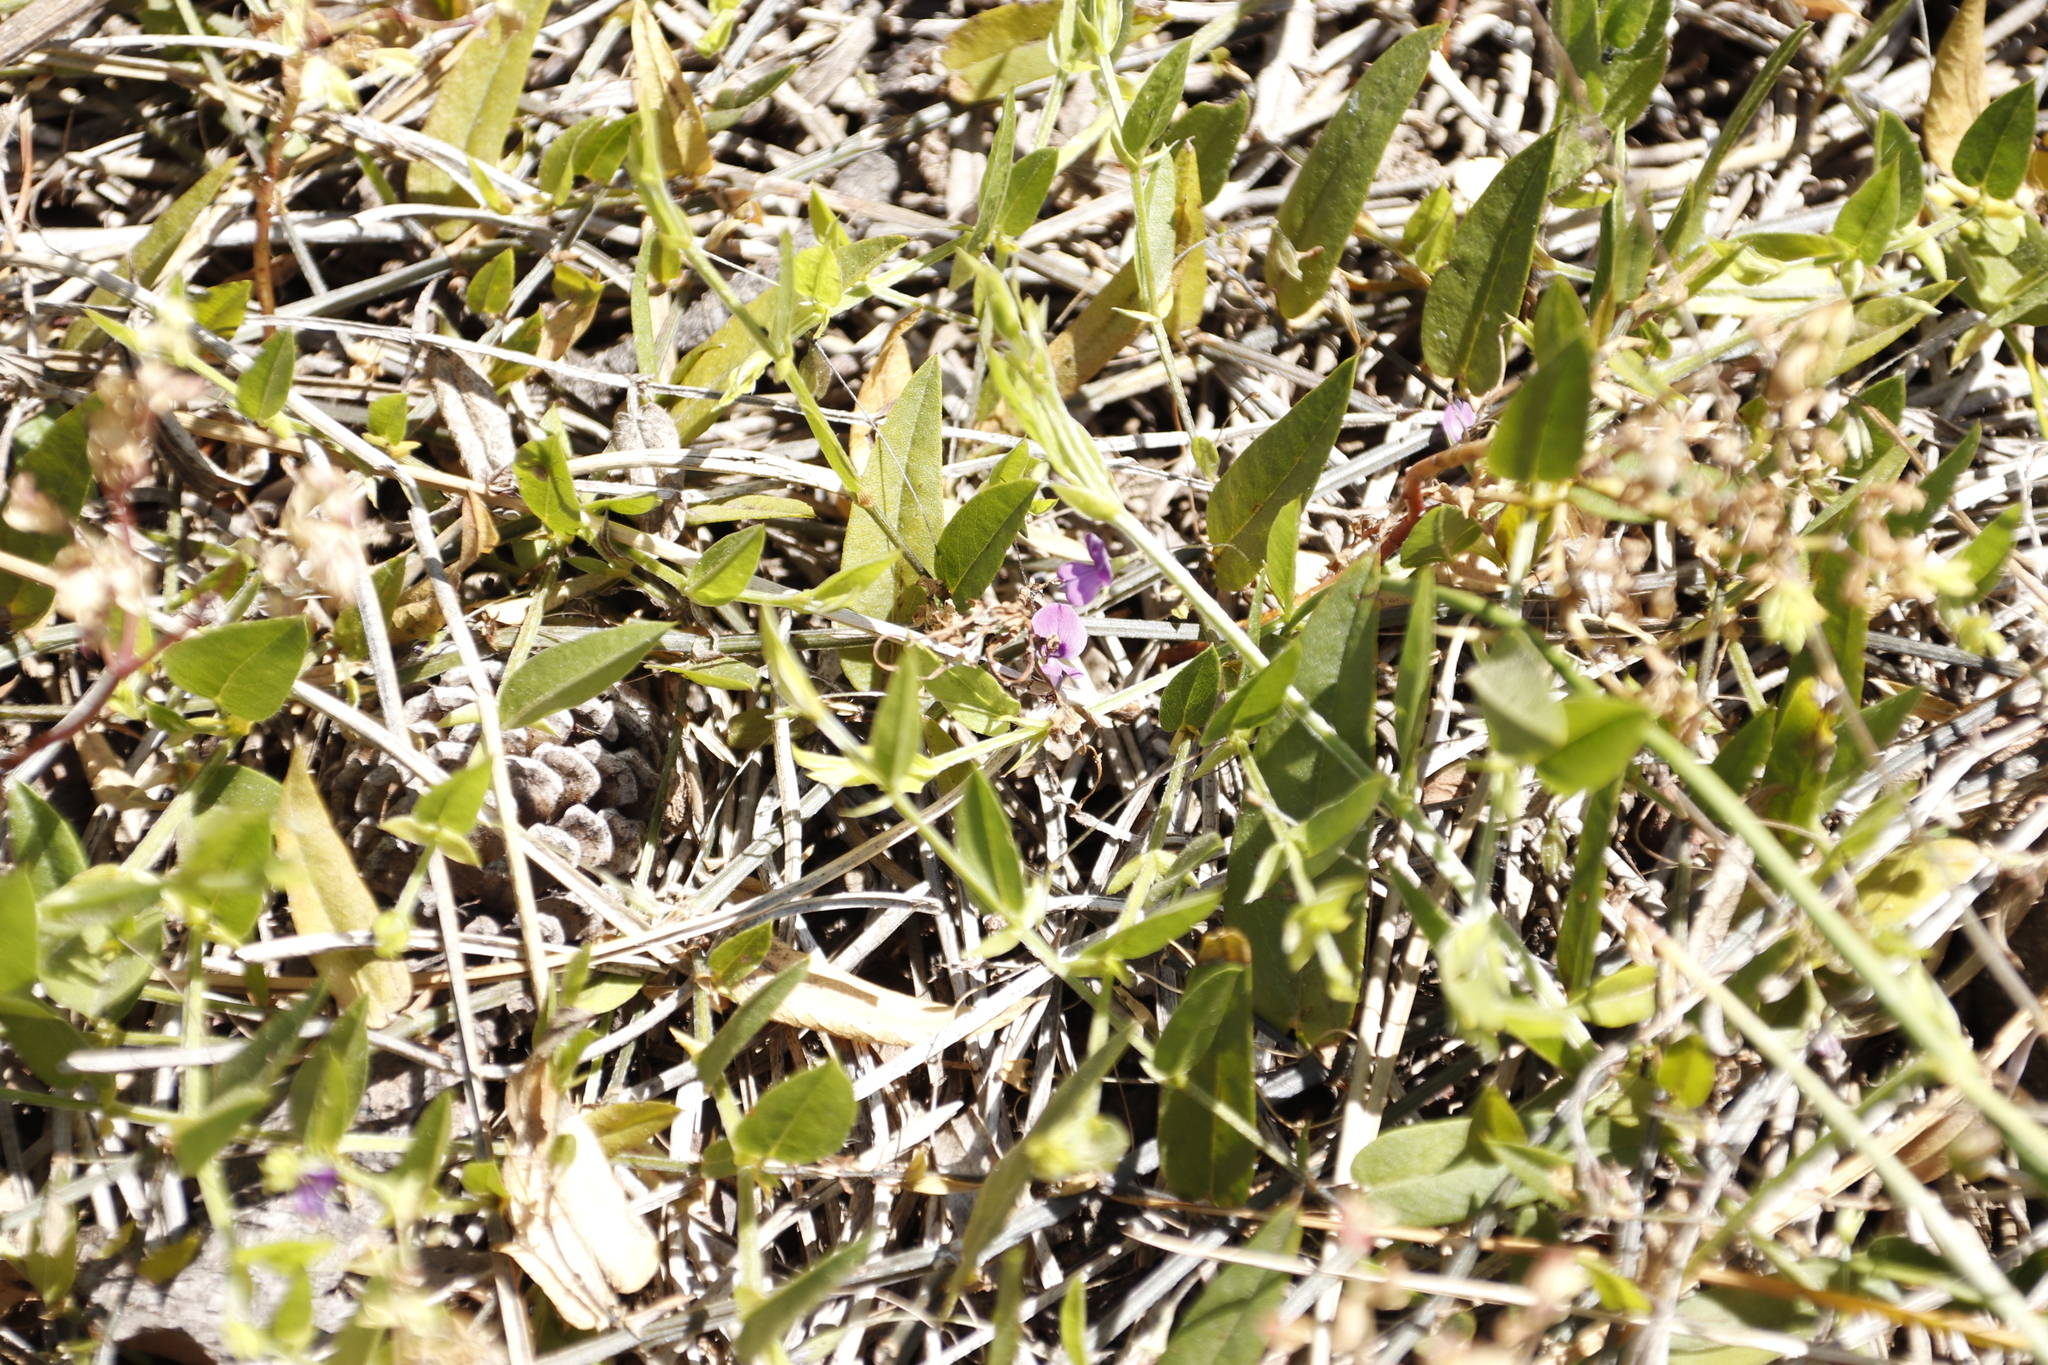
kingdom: Plantae
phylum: Tracheophyta
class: Magnoliopsida
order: Fabales
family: Fabaceae
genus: Psoralea
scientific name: Psoralea monophylla
